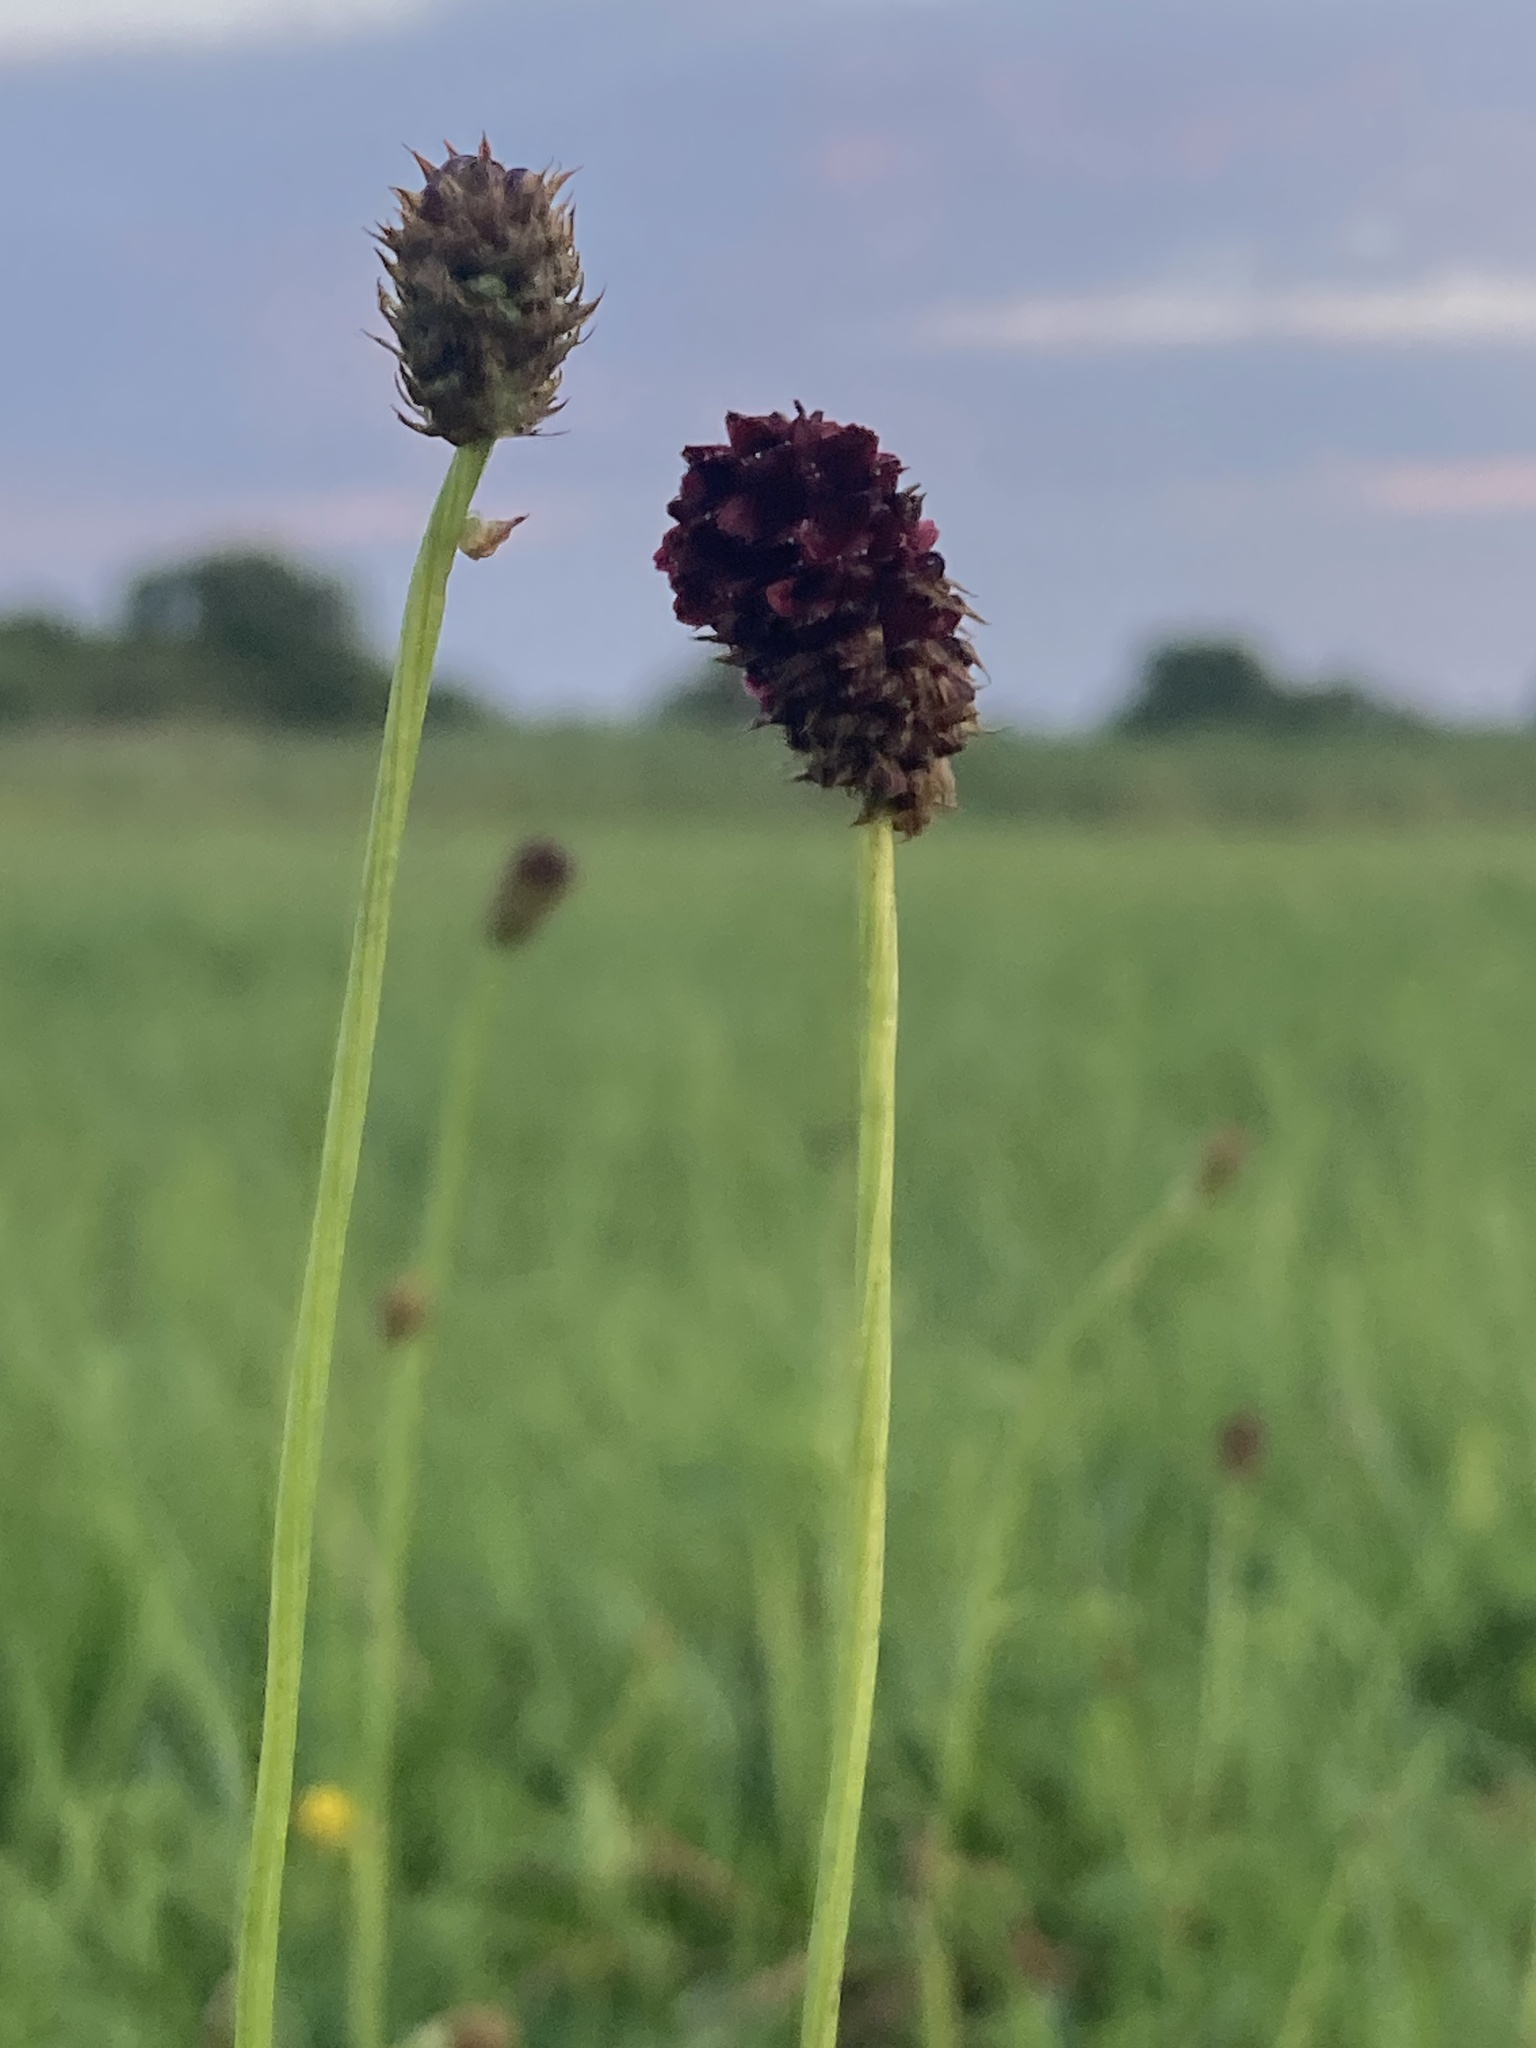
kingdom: Plantae
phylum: Tracheophyta
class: Magnoliopsida
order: Rosales
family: Rosaceae
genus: Sanguisorba
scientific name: Sanguisorba officinalis
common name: Great burnet
